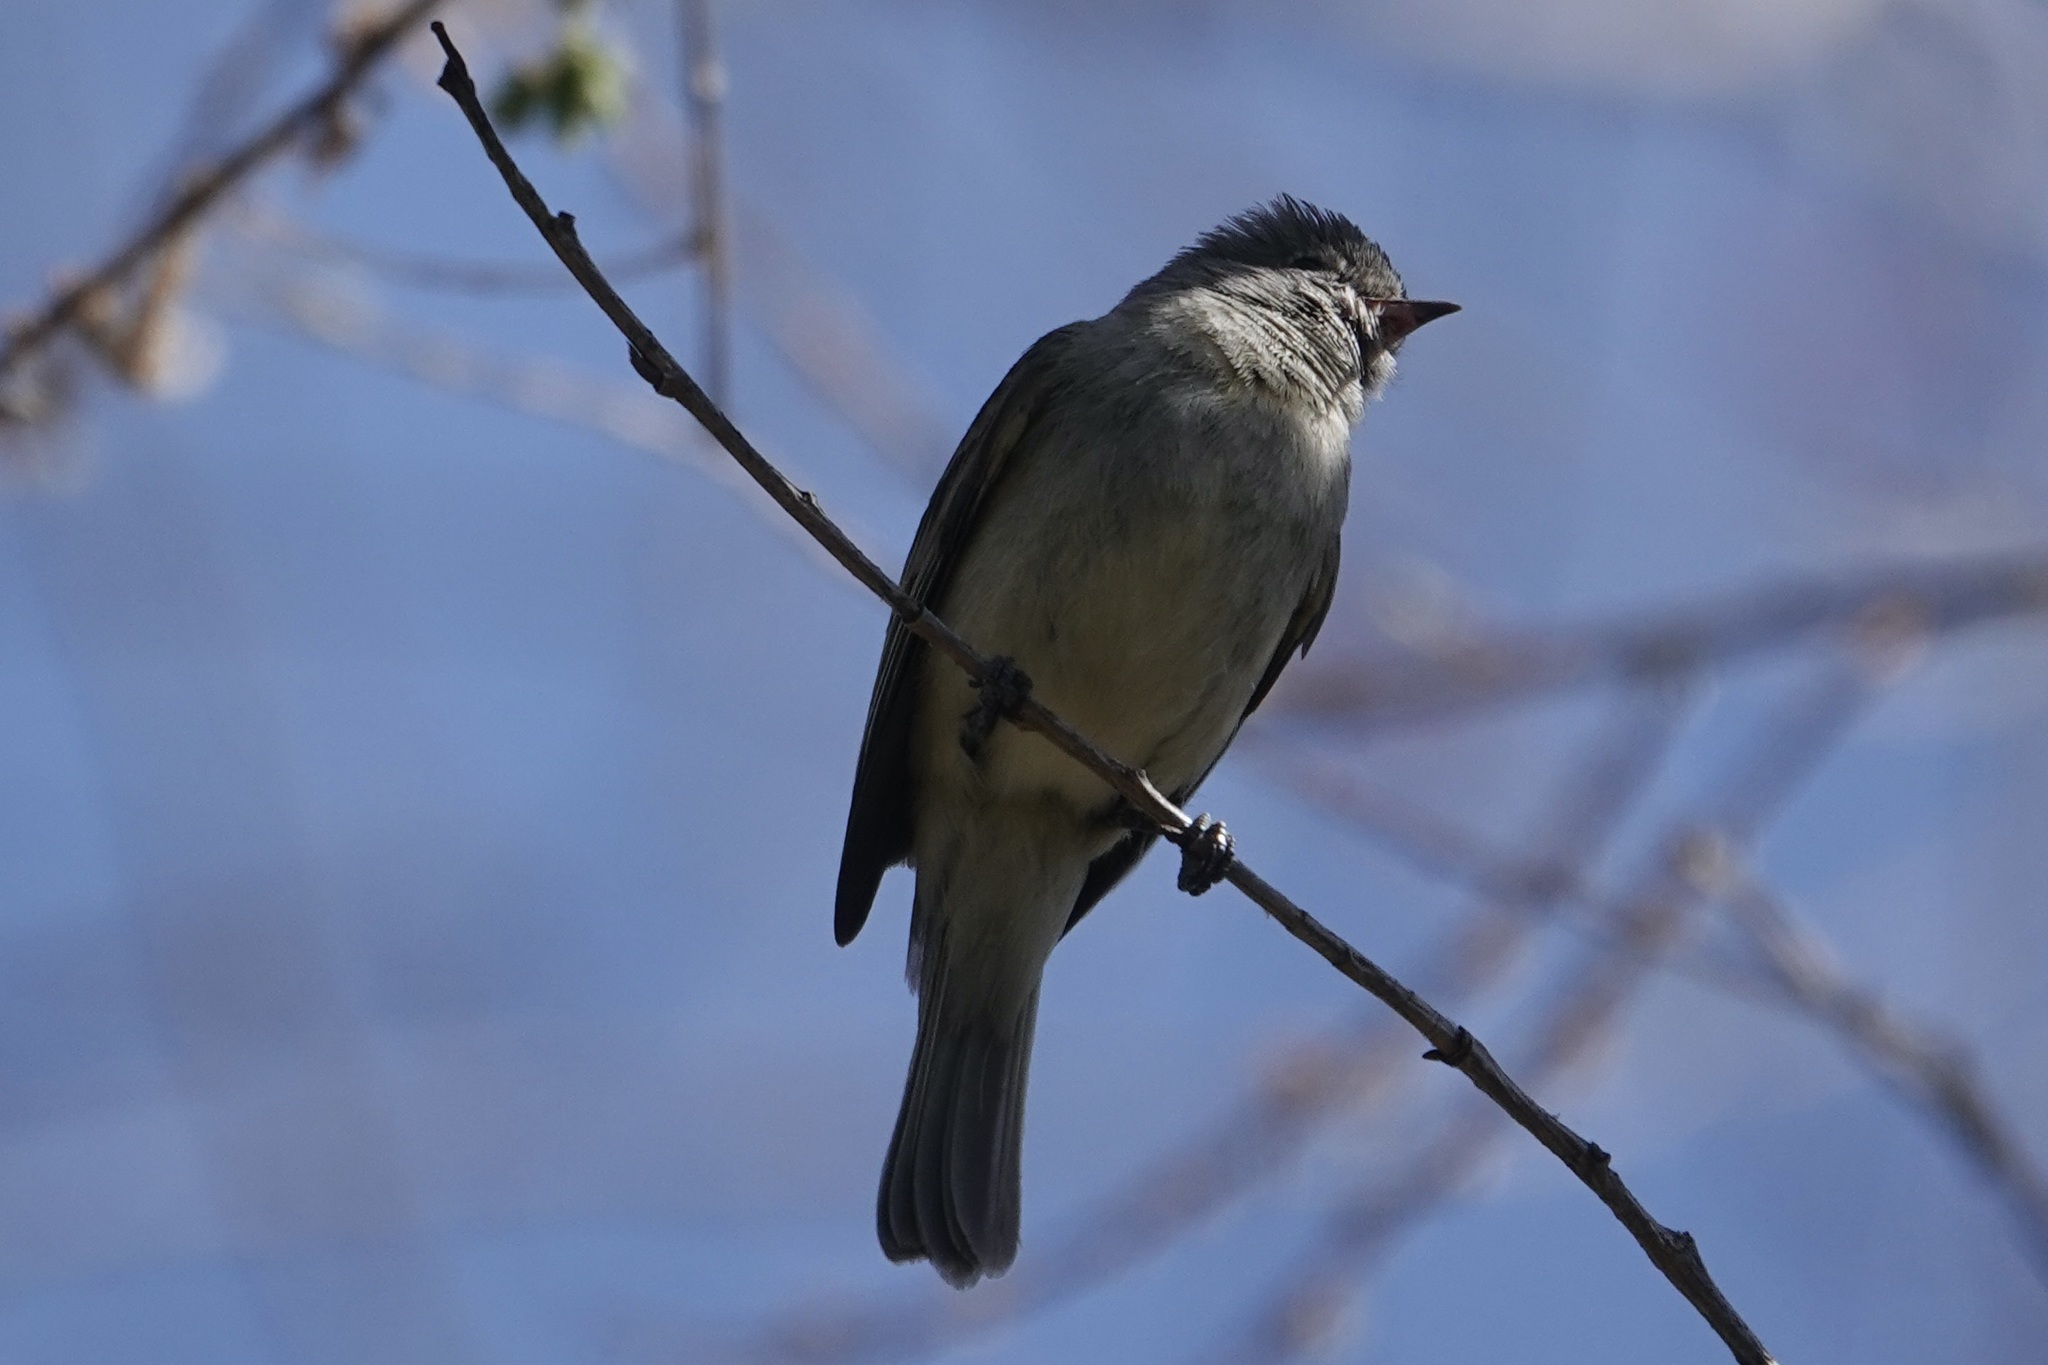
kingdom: Animalia
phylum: Chordata
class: Aves
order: Passeriformes
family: Tyrannidae
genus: Camptostoma
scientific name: Camptostoma imberbe
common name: Northern beardless-tyrannulet
